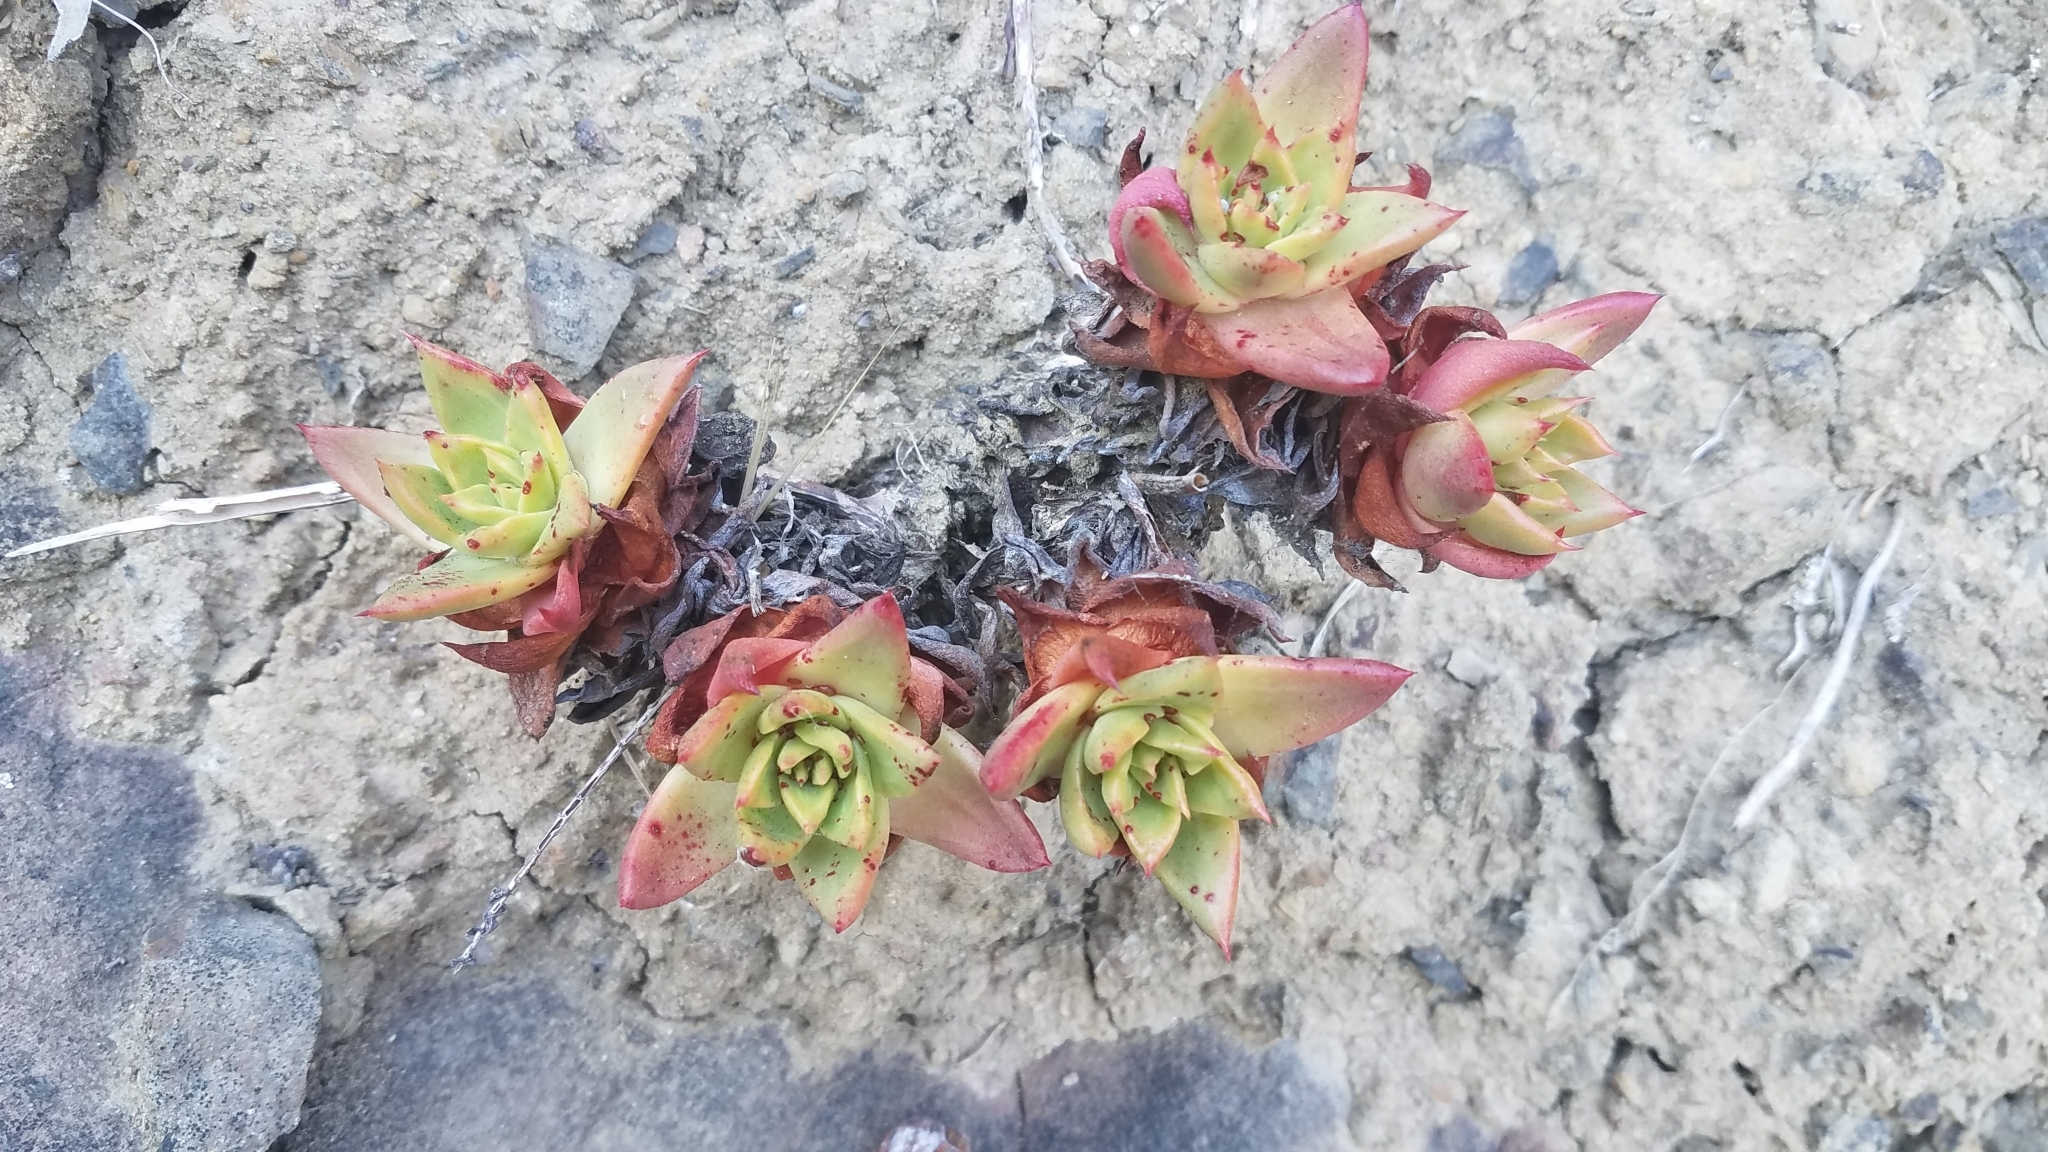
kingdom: Plantae
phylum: Tracheophyta
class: Magnoliopsida
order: Saxifragales
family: Crassulaceae
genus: Dudleya
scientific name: Dudleya farinosa
